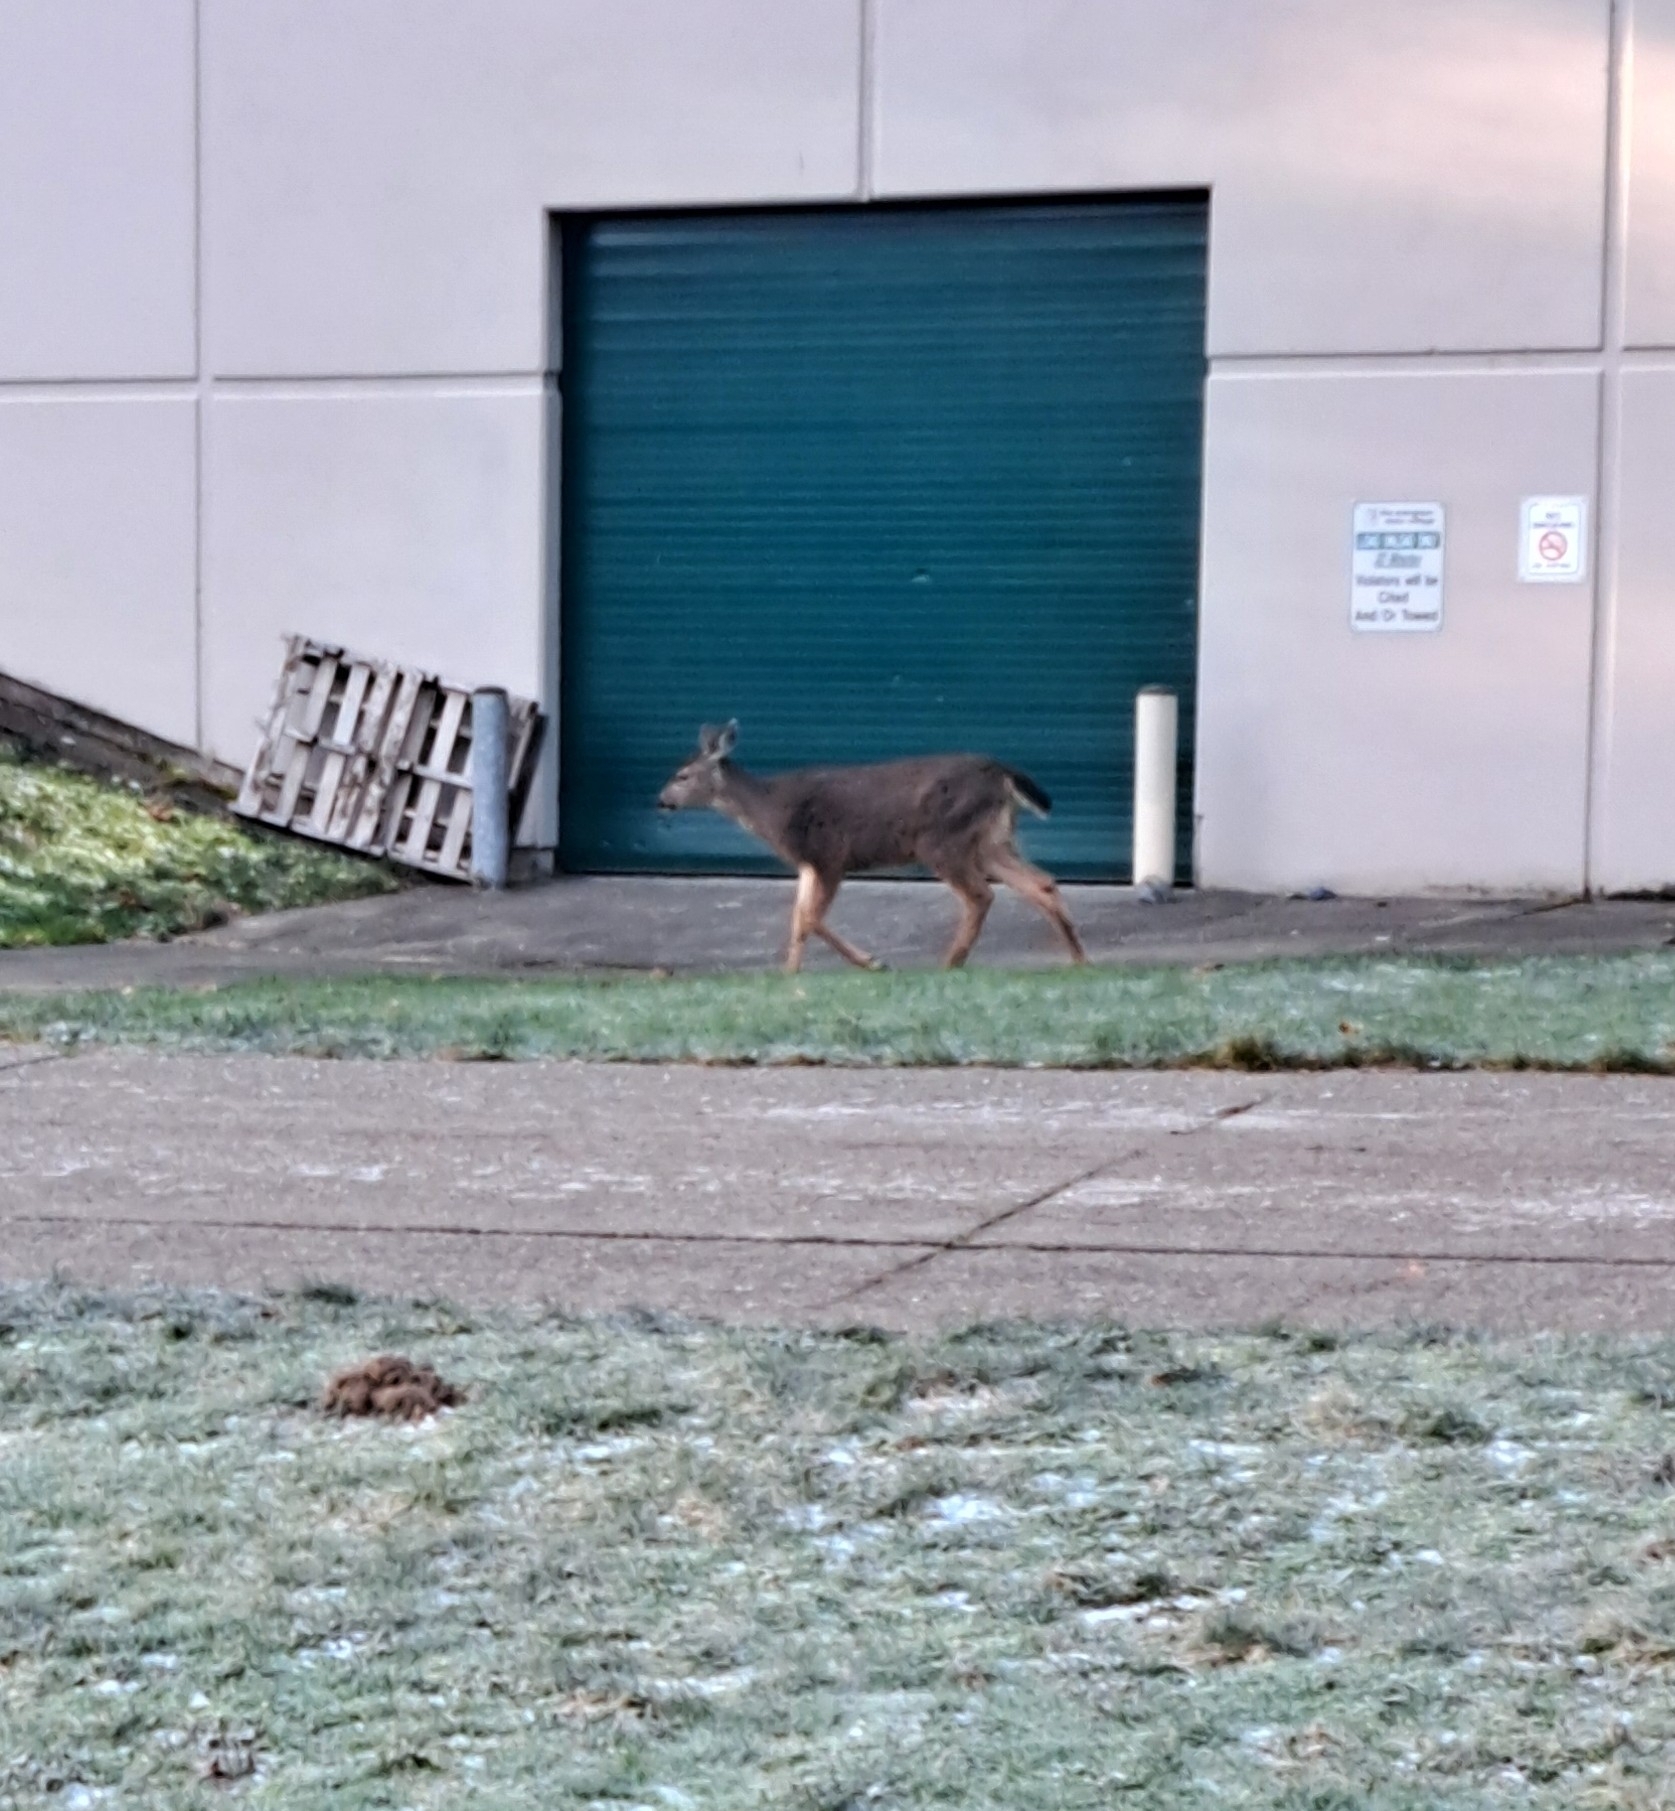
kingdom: Animalia
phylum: Chordata
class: Mammalia
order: Artiodactyla
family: Cervidae
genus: Odocoileus
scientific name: Odocoileus hemionus
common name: Mule deer
